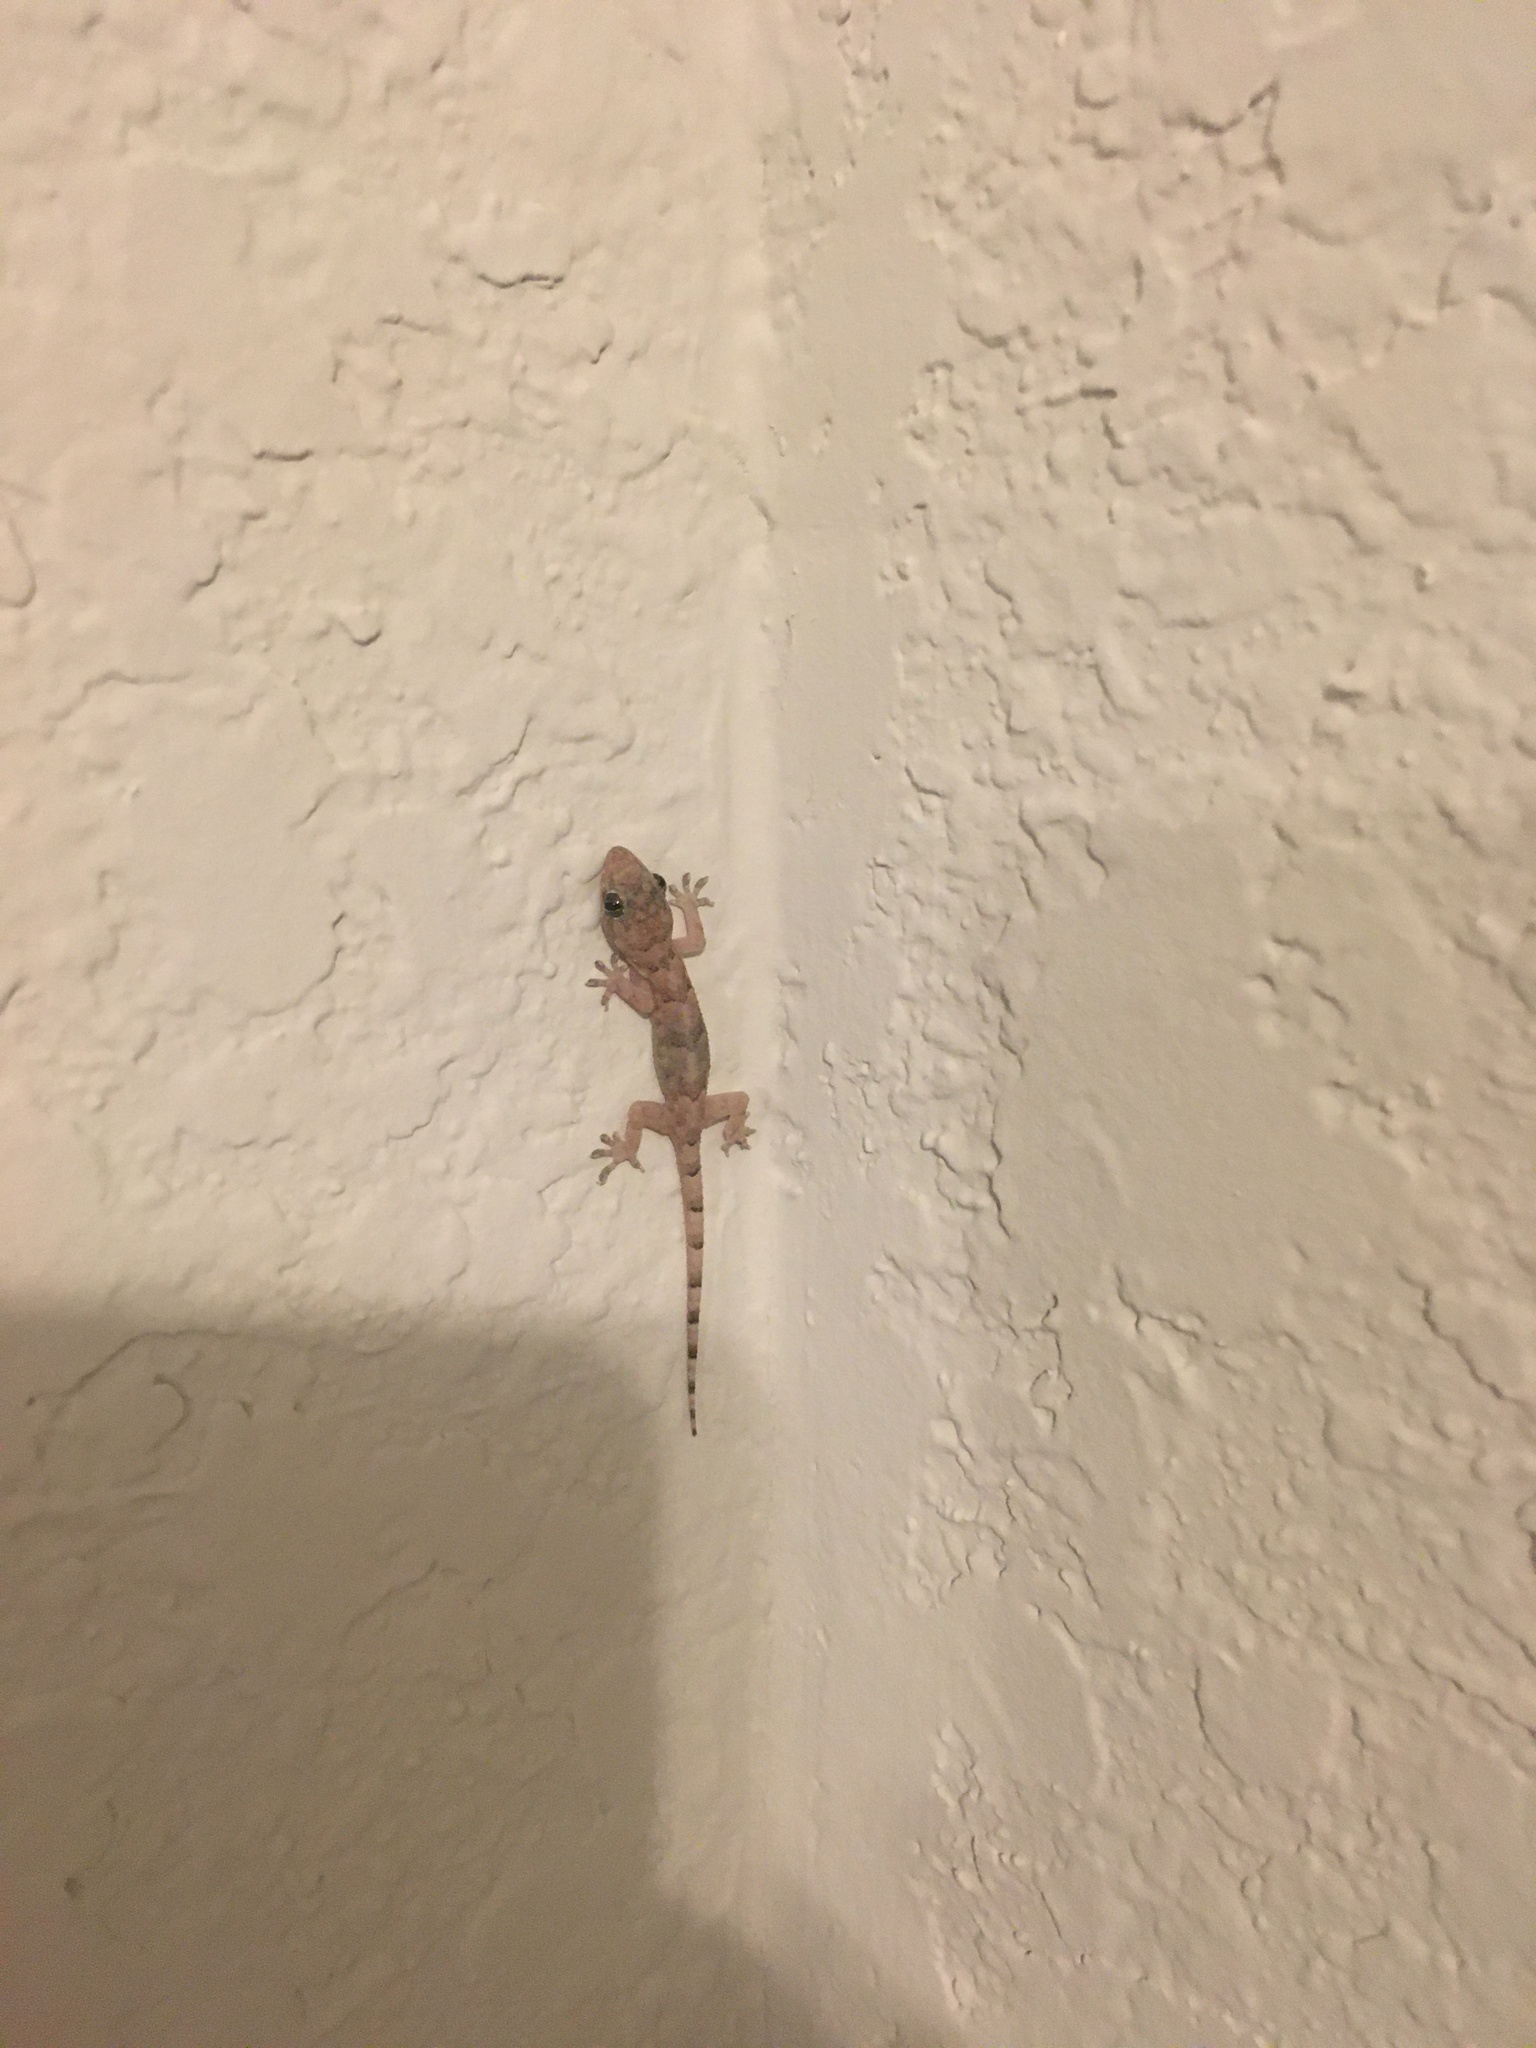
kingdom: Animalia
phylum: Chordata
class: Squamata
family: Gekkonidae
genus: Hemidactylus
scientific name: Hemidactylus mabouia
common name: House gecko
